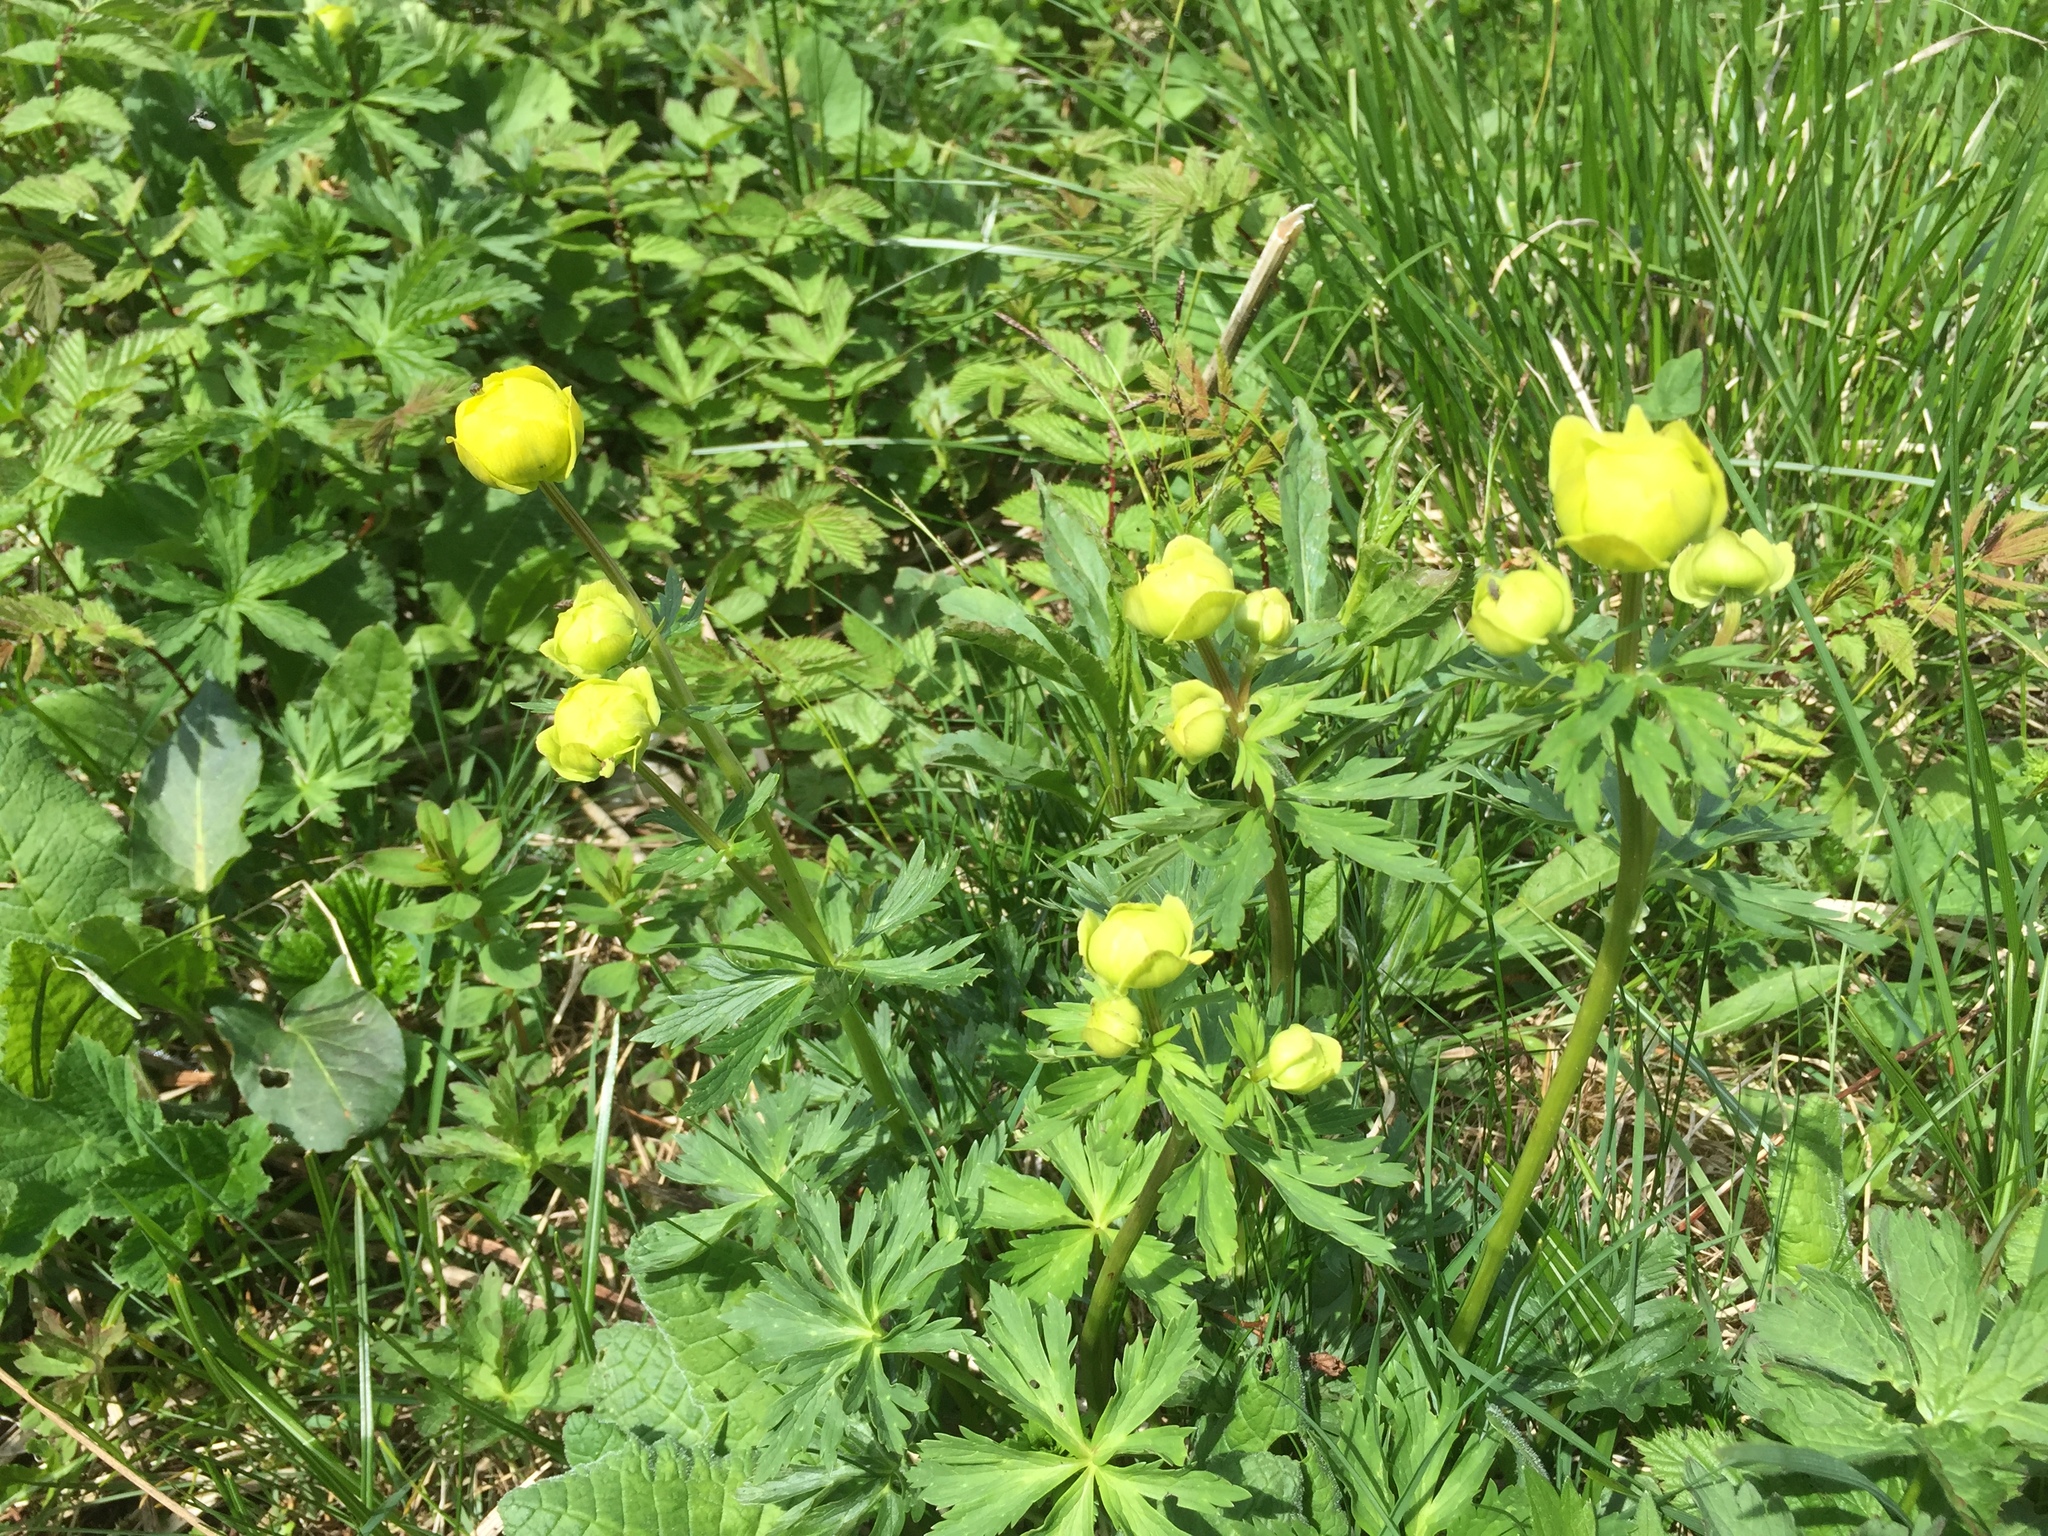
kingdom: Plantae
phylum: Tracheophyta
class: Magnoliopsida
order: Ranunculales
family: Ranunculaceae
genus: Trollius
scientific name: Trollius europaeus
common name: European globeflower
